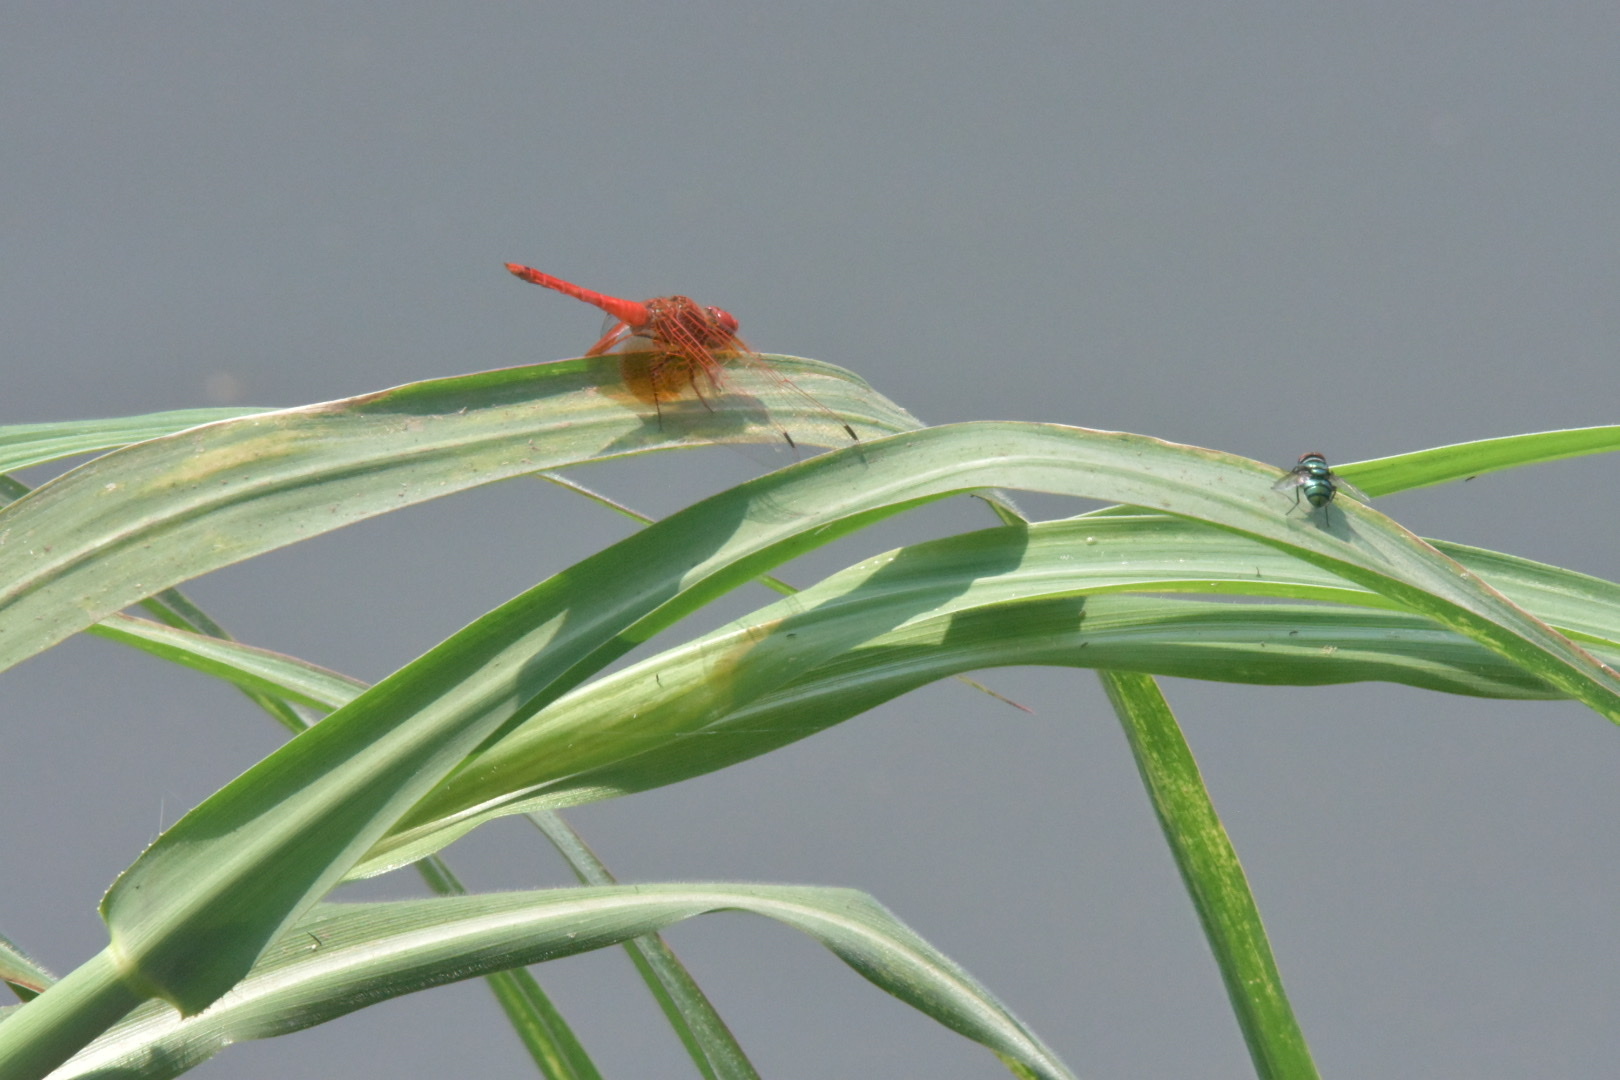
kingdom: Animalia
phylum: Arthropoda
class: Insecta
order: Odonata
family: Libellulidae
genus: Trithemis
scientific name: Trithemis kirbyi
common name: Kirby's dropwing
